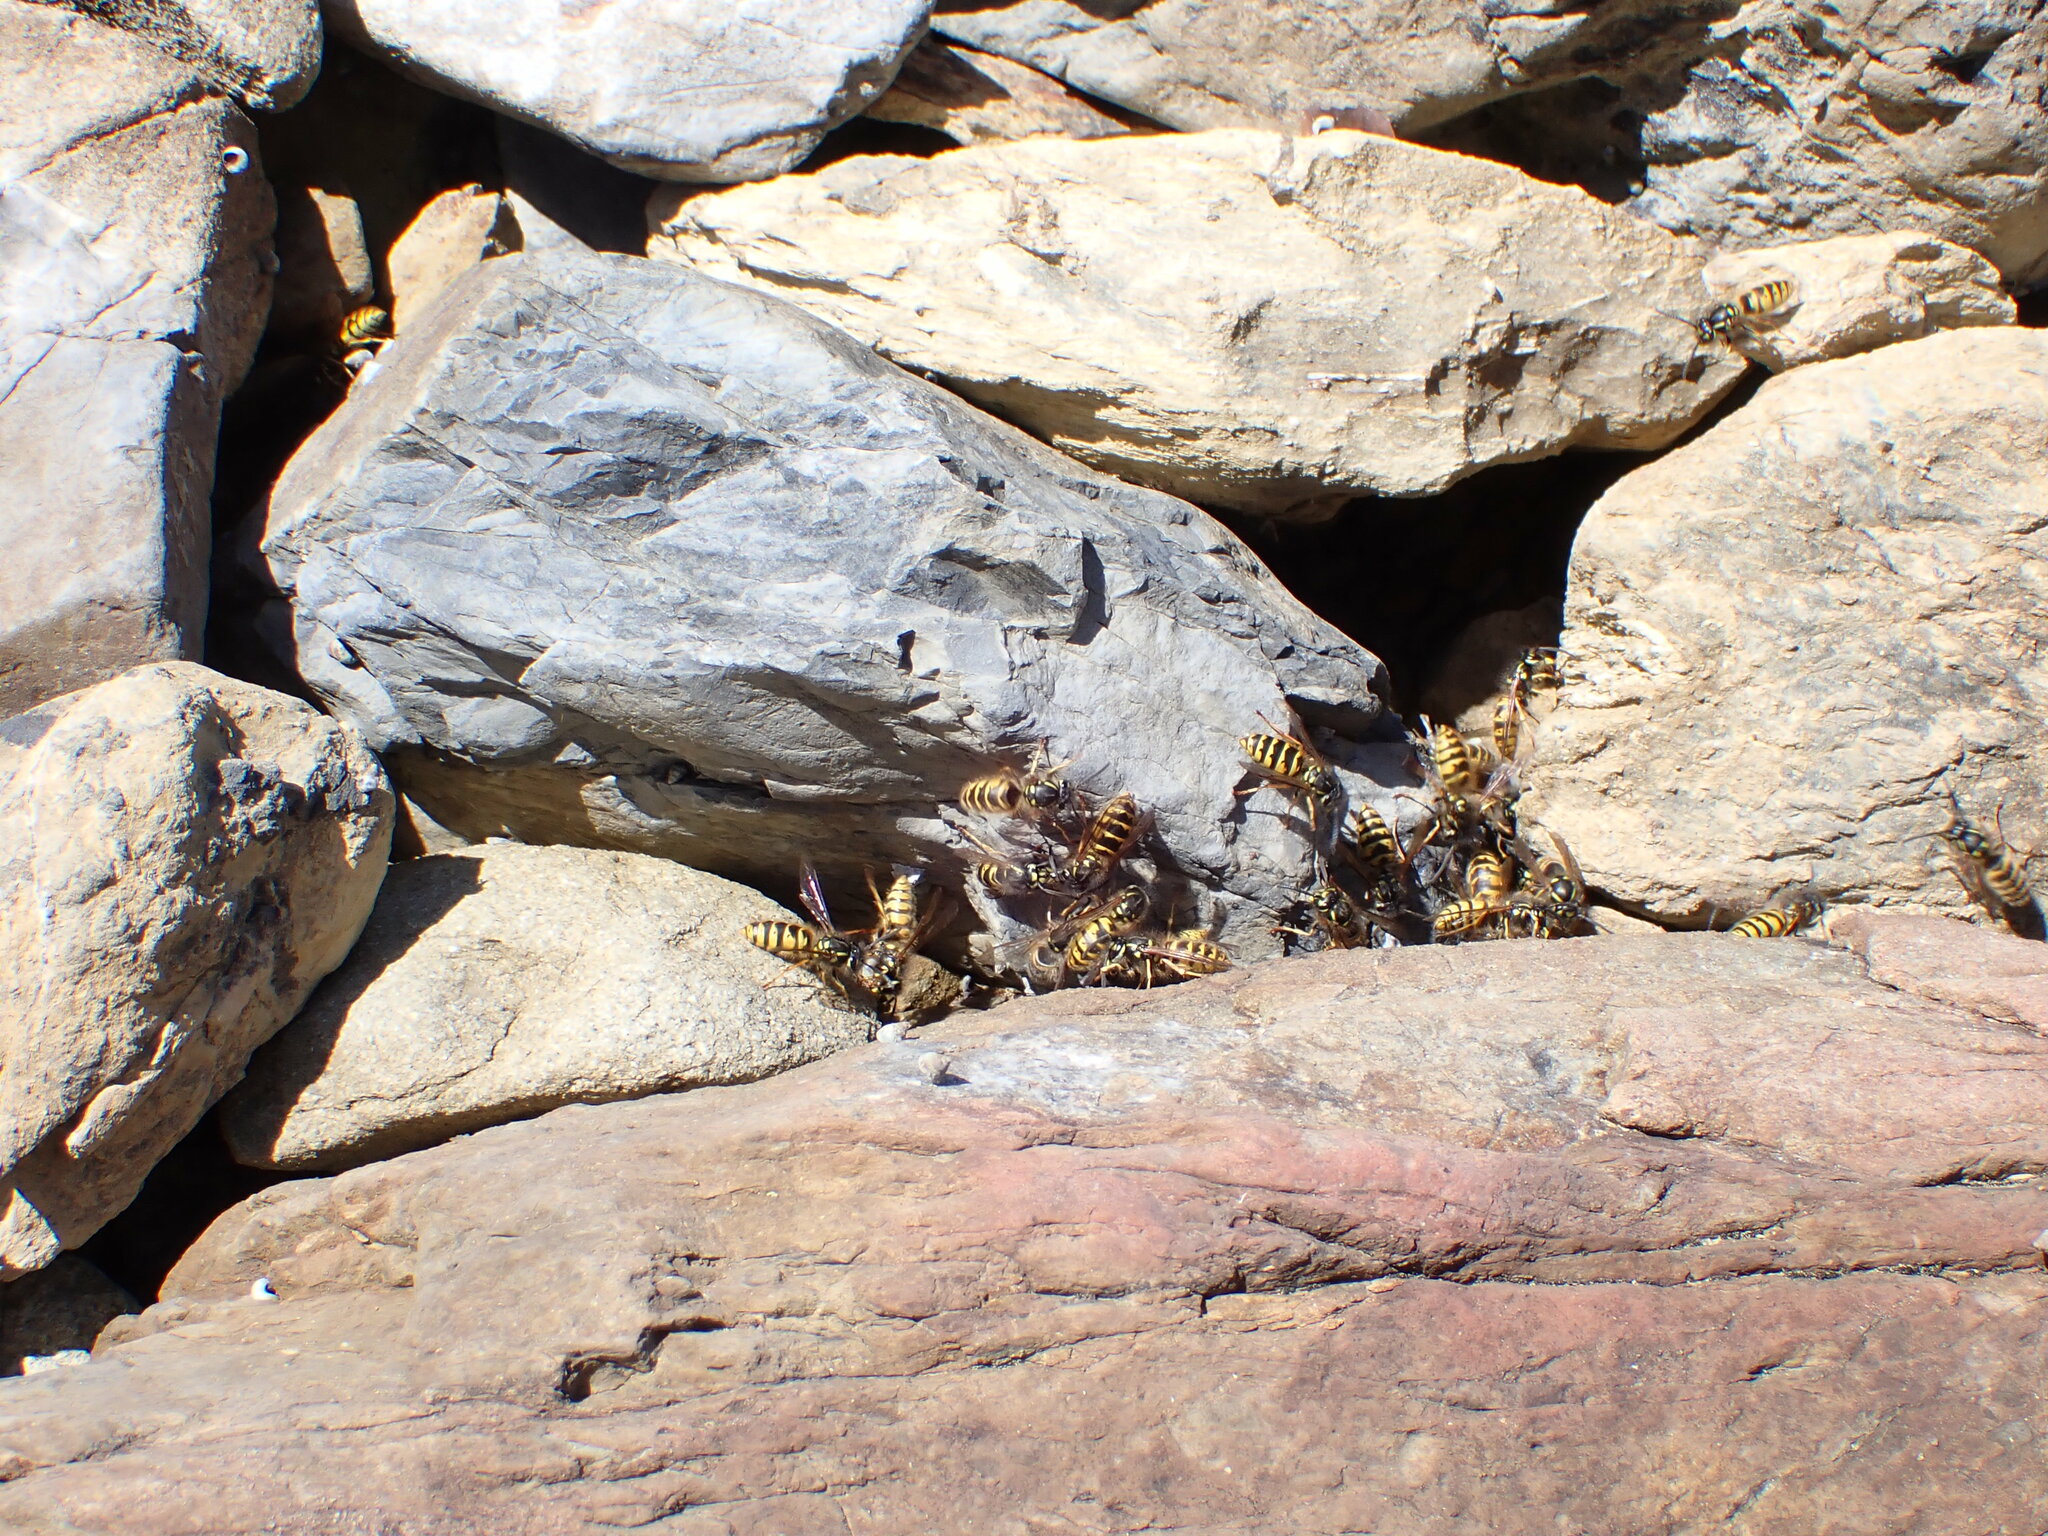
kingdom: Animalia
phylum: Arthropoda
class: Insecta
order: Hymenoptera
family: Vespidae
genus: Vespula
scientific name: Vespula vulgaris
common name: Common wasp
